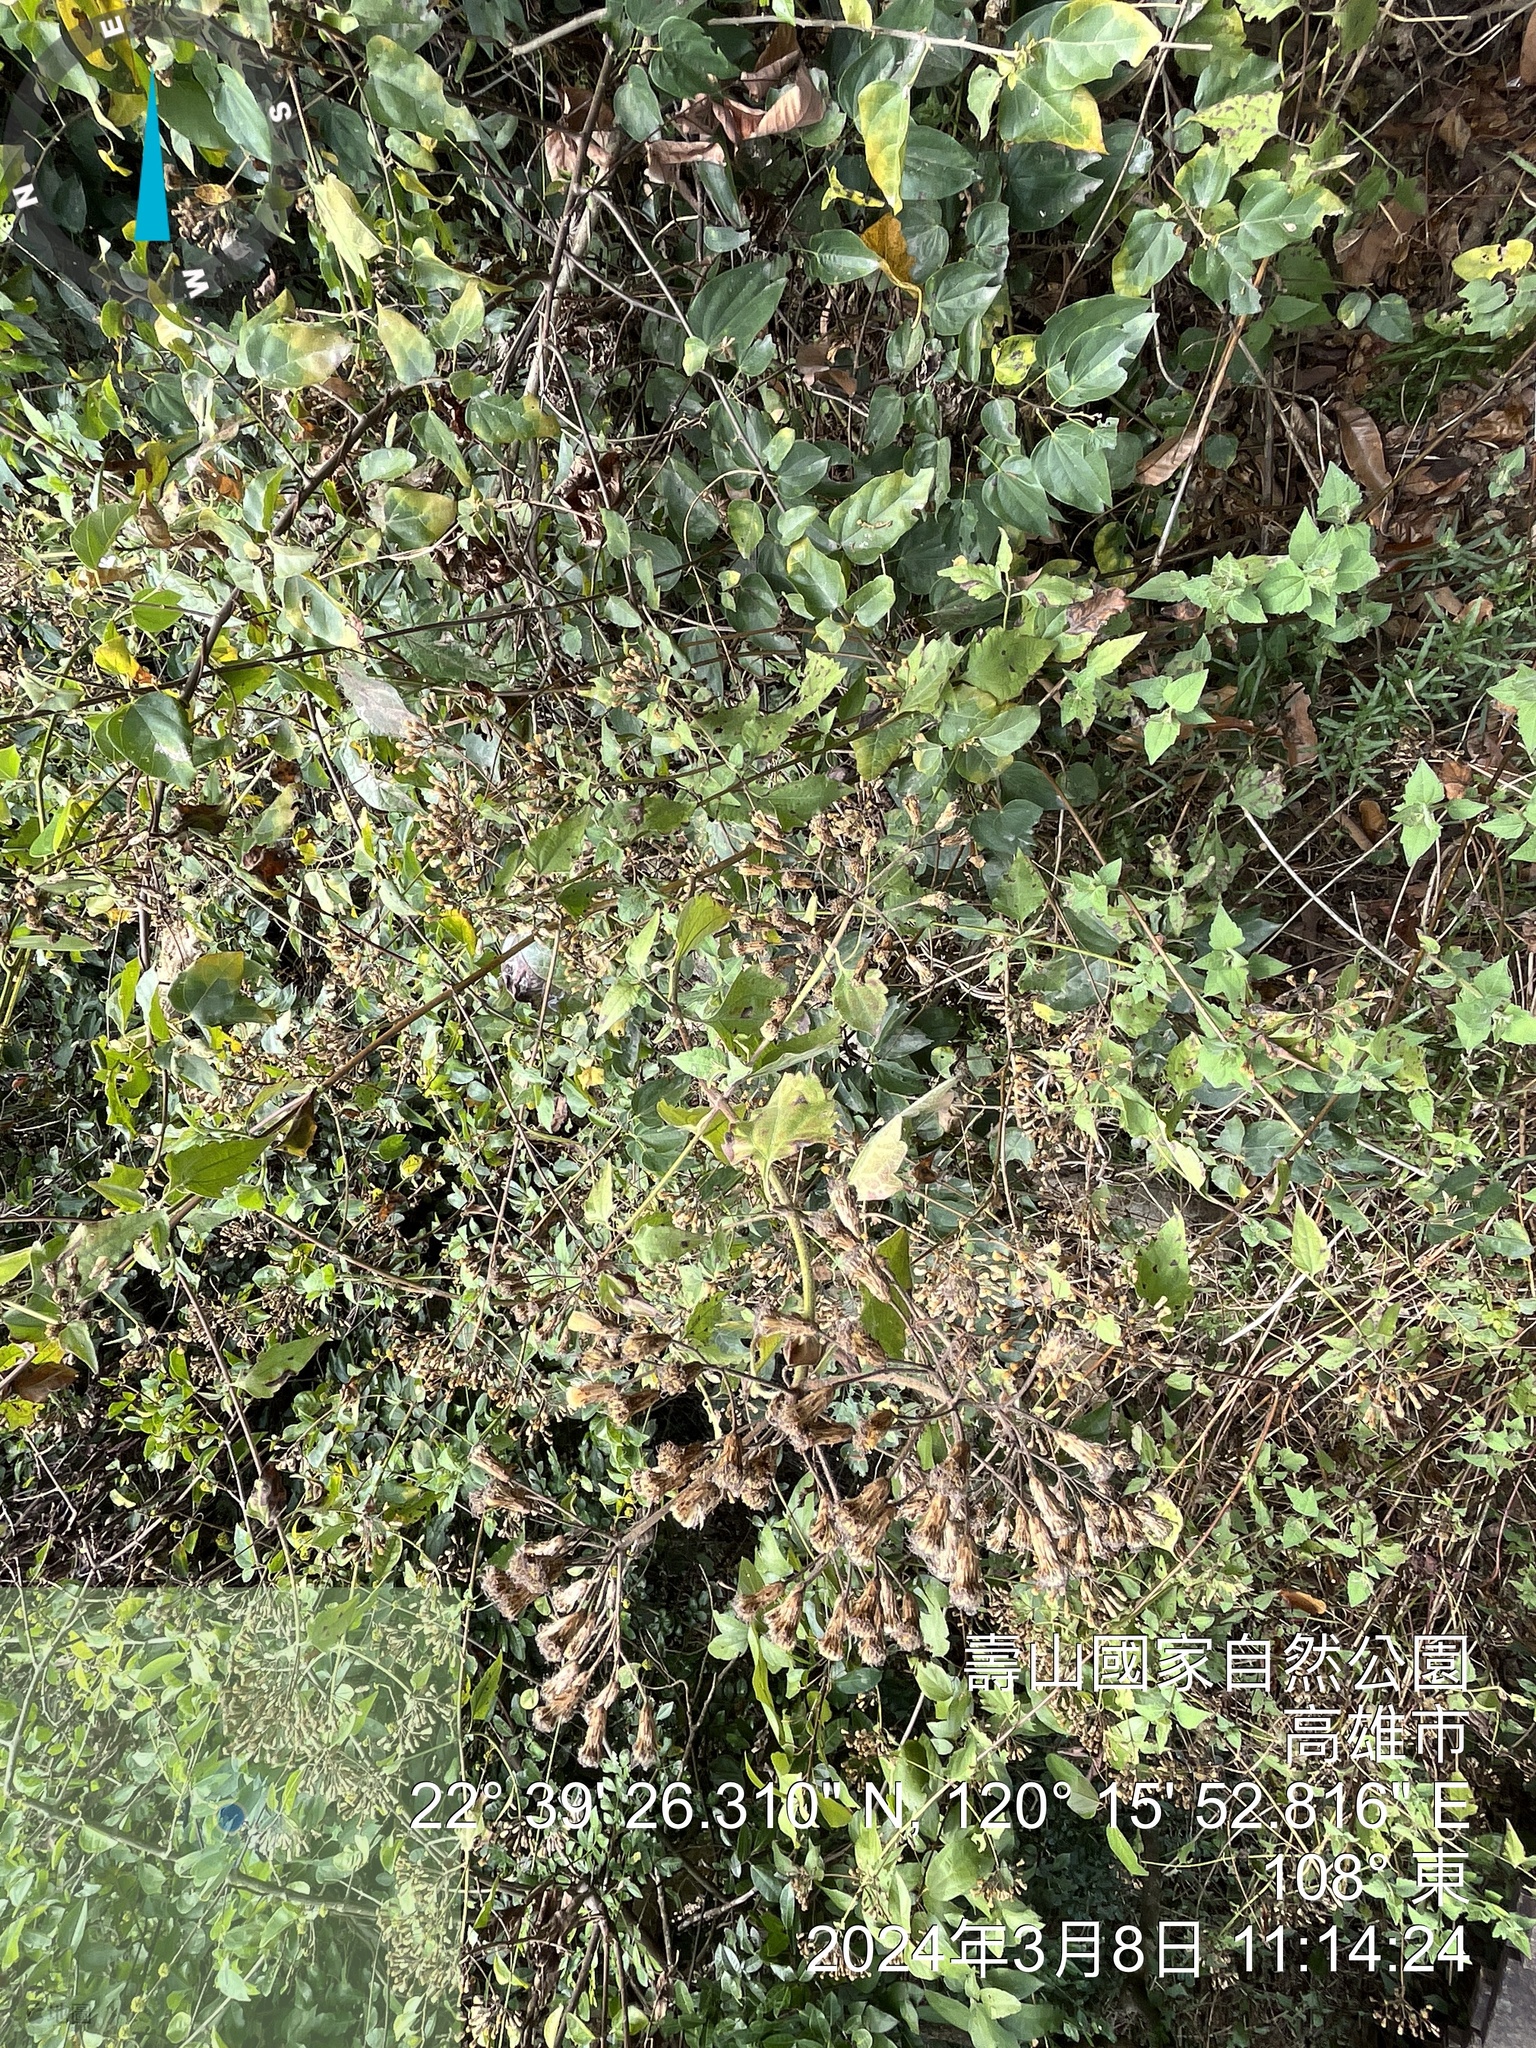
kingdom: Plantae
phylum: Tracheophyta
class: Magnoliopsida
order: Asterales
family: Asteraceae
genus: Chromolaena
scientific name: Chromolaena odorata
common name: Siamweed
